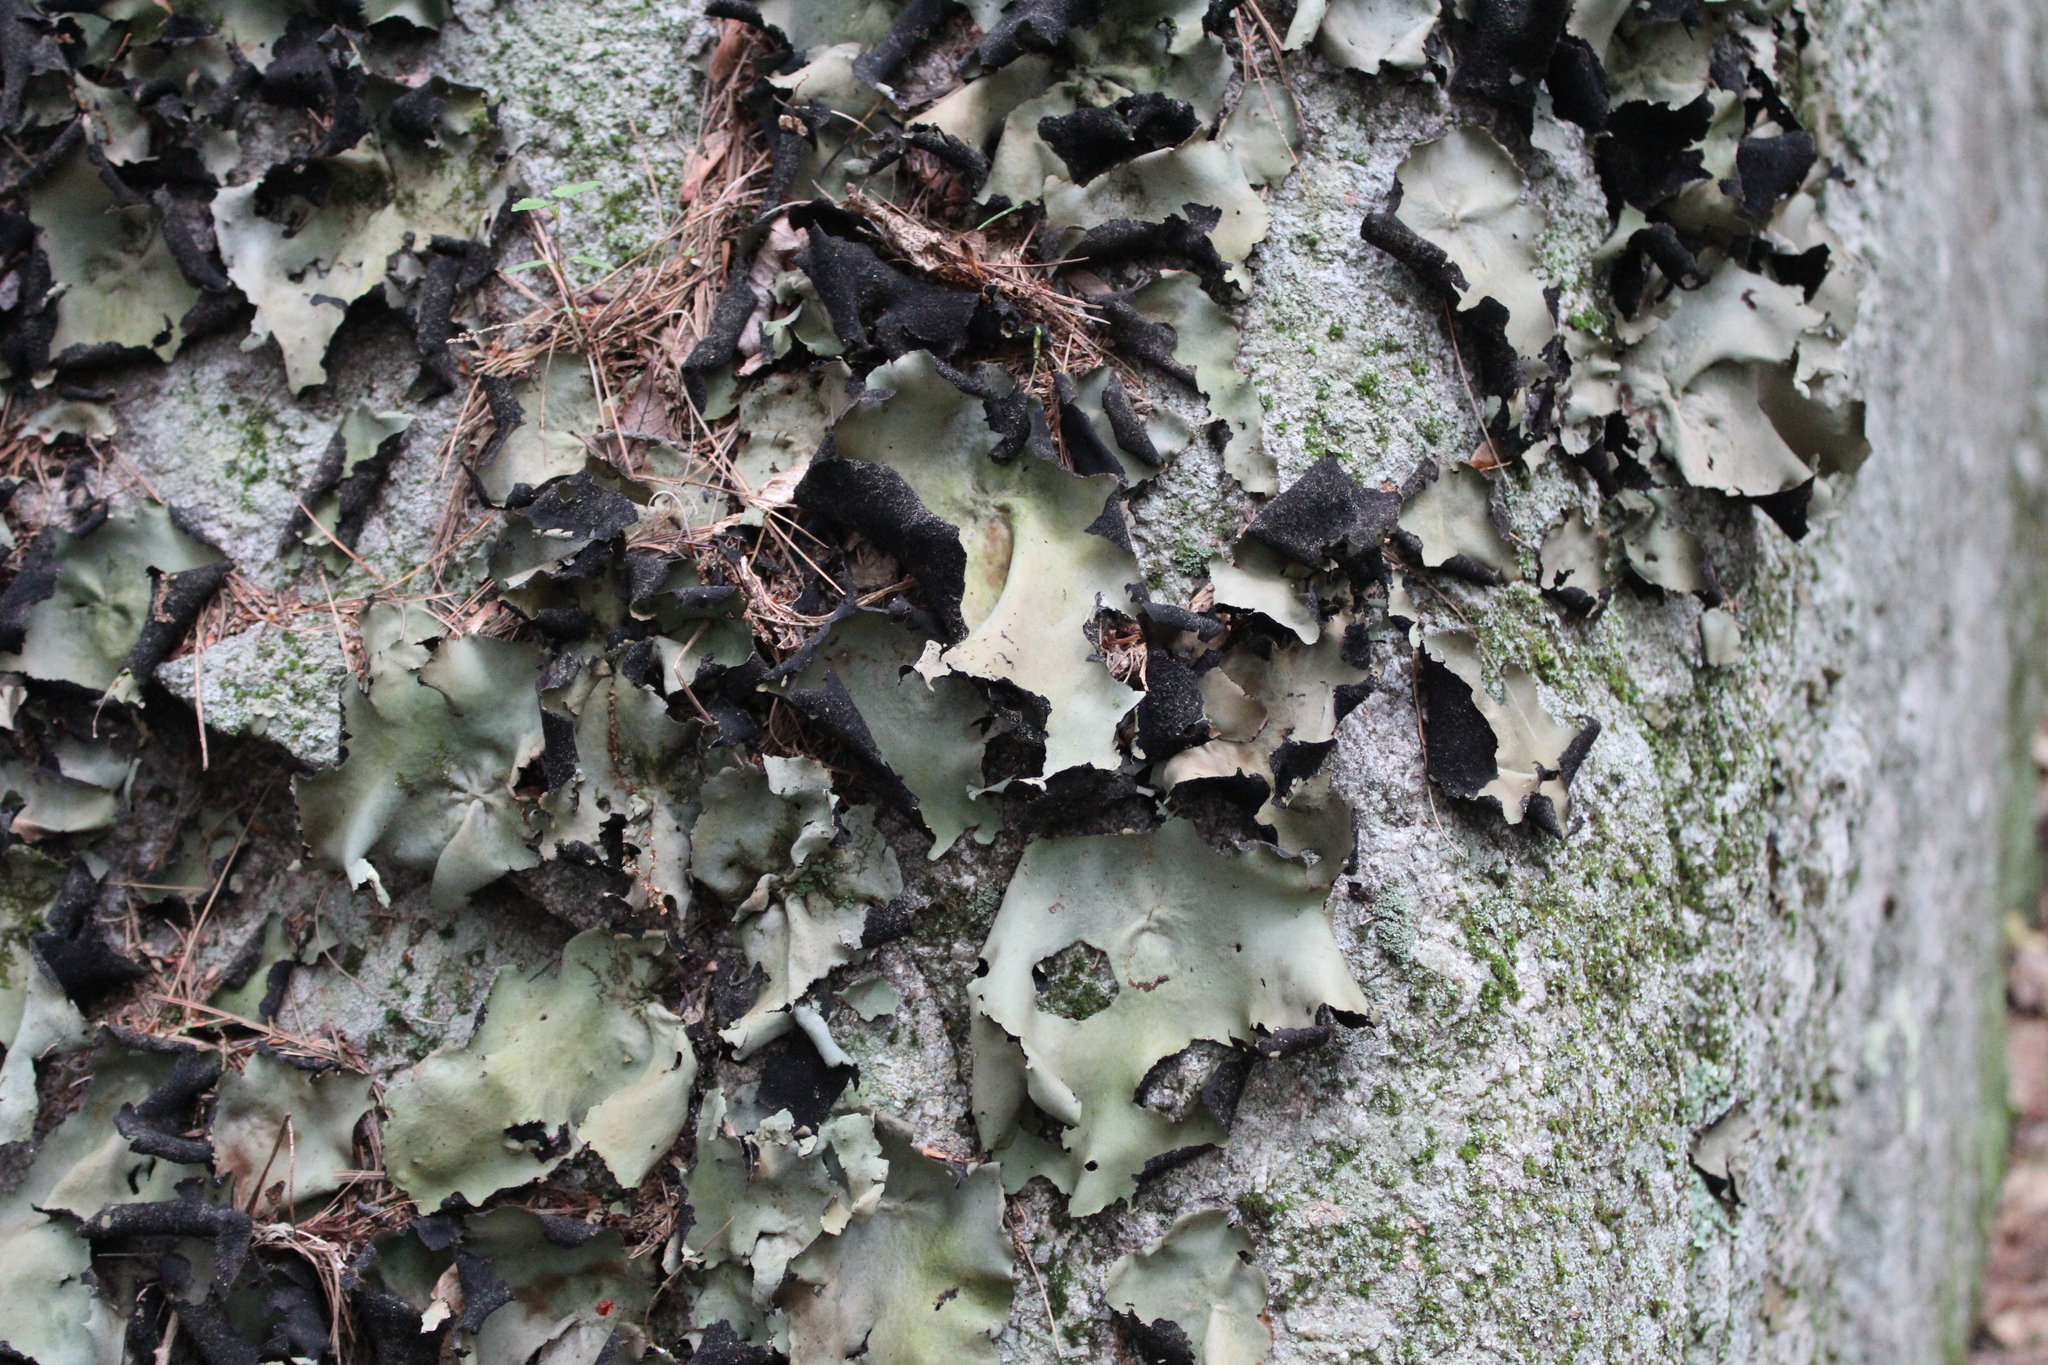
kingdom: Fungi
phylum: Ascomycota
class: Lecanoromycetes
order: Umbilicariales
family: Umbilicariaceae
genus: Umbilicaria
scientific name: Umbilicaria mammulata
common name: Smooth rock tripe
